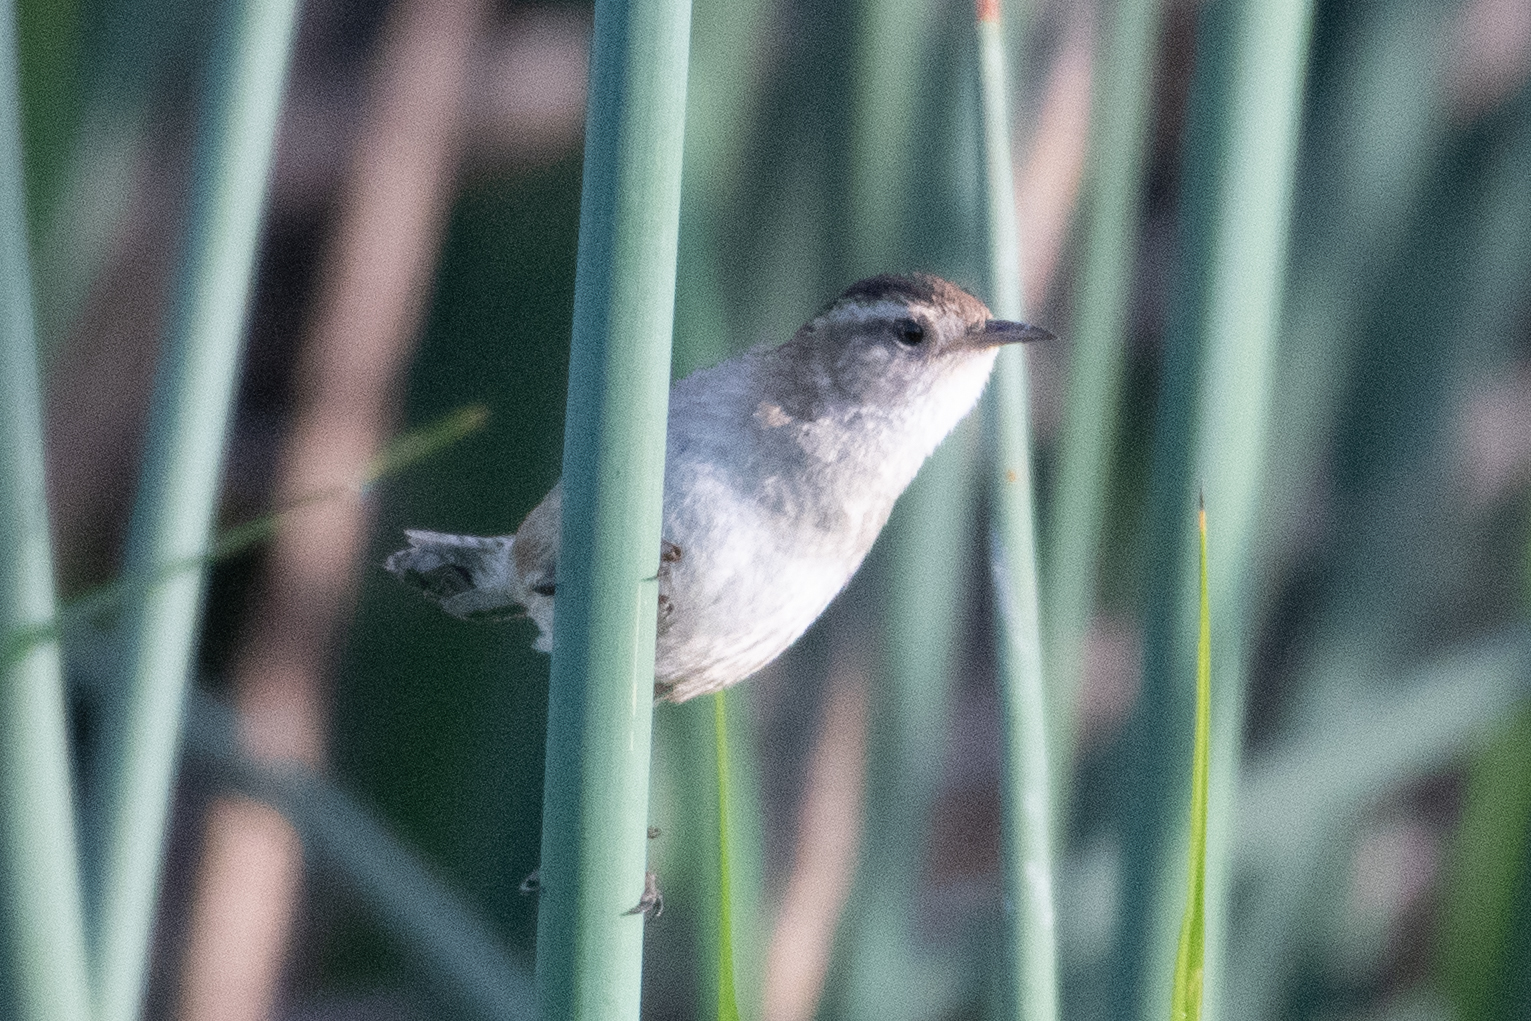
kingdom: Animalia
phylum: Chordata
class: Aves
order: Passeriformes
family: Troglodytidae
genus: Cistothorus
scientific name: Cistothorus palustris
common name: Marsh wren
